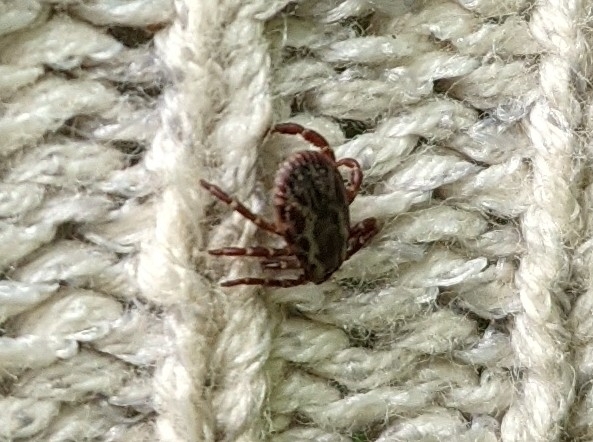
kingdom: Animalia
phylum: Arthropoda
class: Arachnida
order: Ixodida
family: Ixodidae
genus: Dermacentor
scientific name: Dermacentor variabilis
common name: American dog tick
